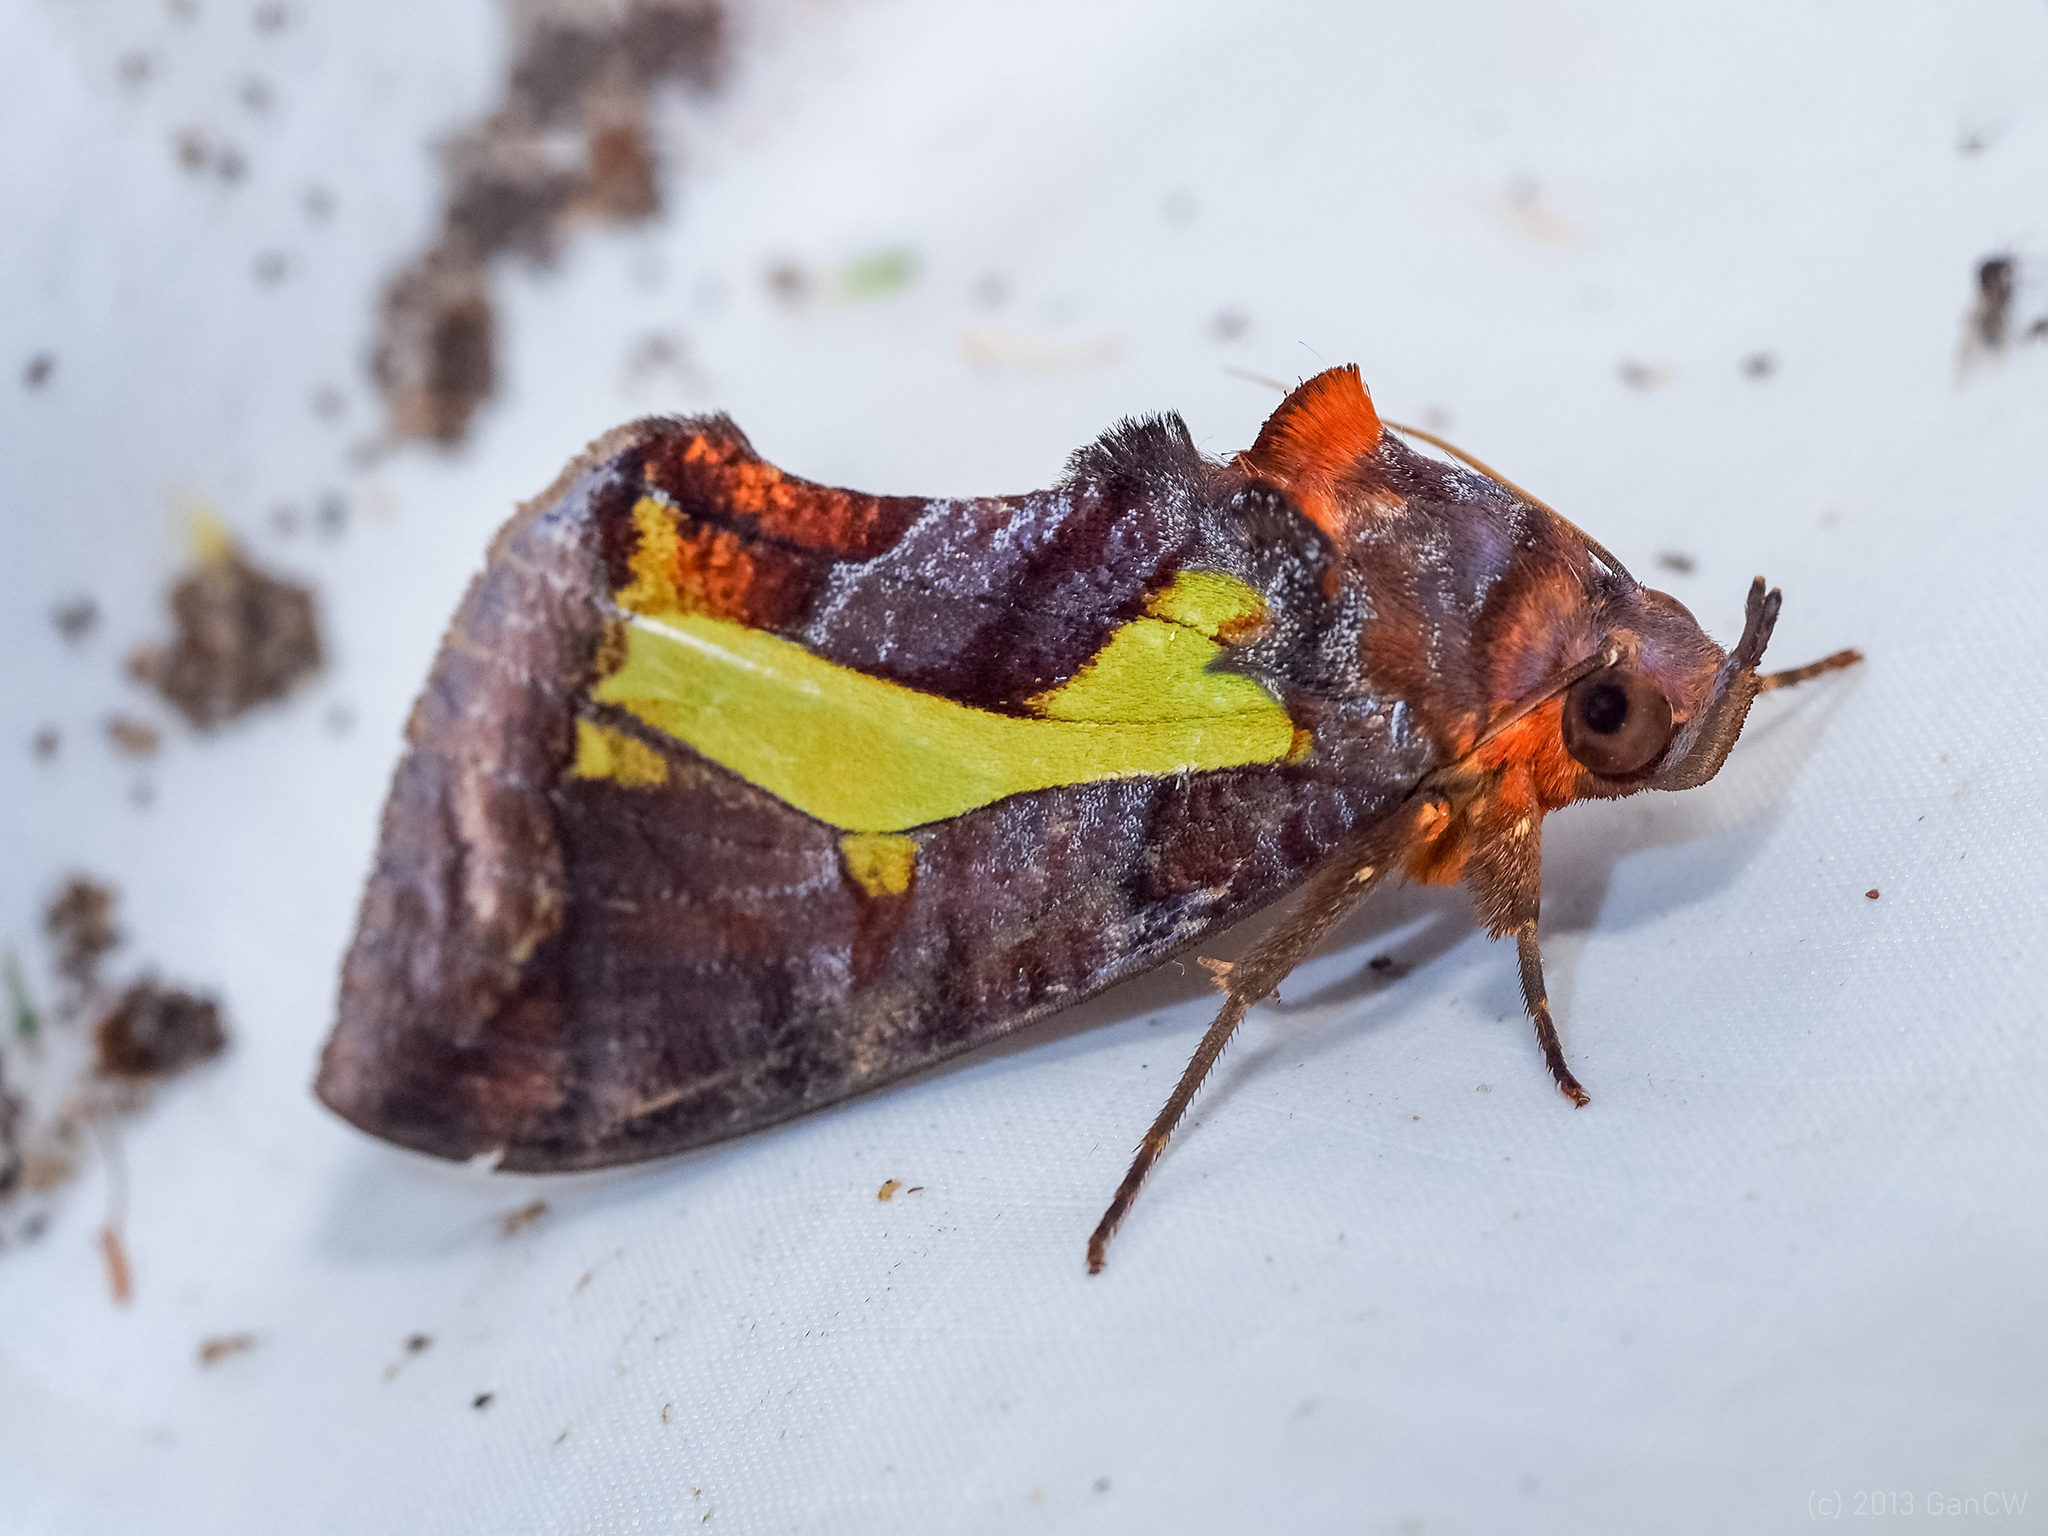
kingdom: Animalia
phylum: Arthropoda
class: Insecta
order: Lepidoptera
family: Erebidae
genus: Eudocima
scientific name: Eudocima homaena
